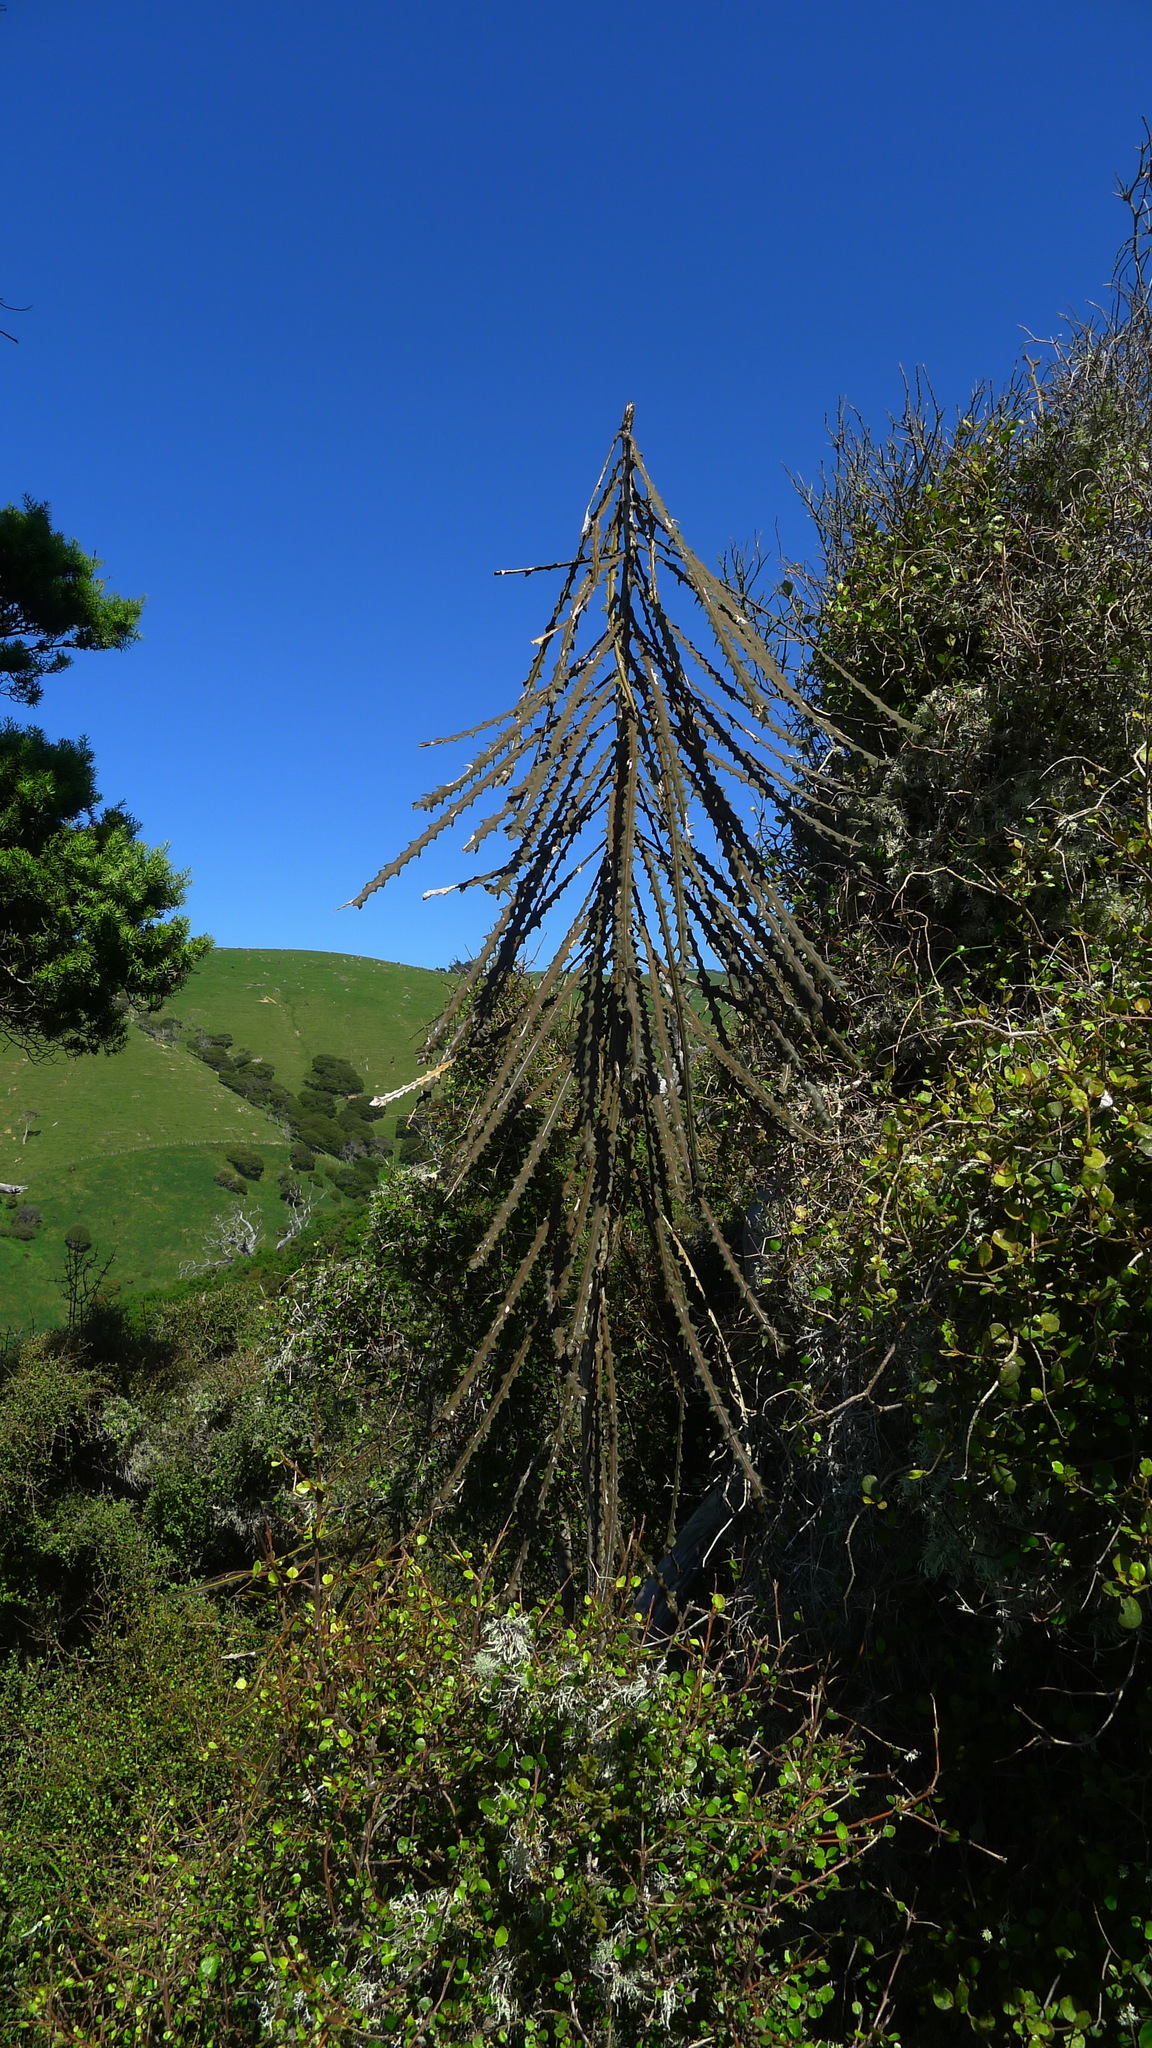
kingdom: Plantae
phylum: Tracheophyta
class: Magnoliopsida
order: Apiales
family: Araliaceae
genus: Pseudopanax
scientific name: Pseudopanax ferox
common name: Fierce lancewood
